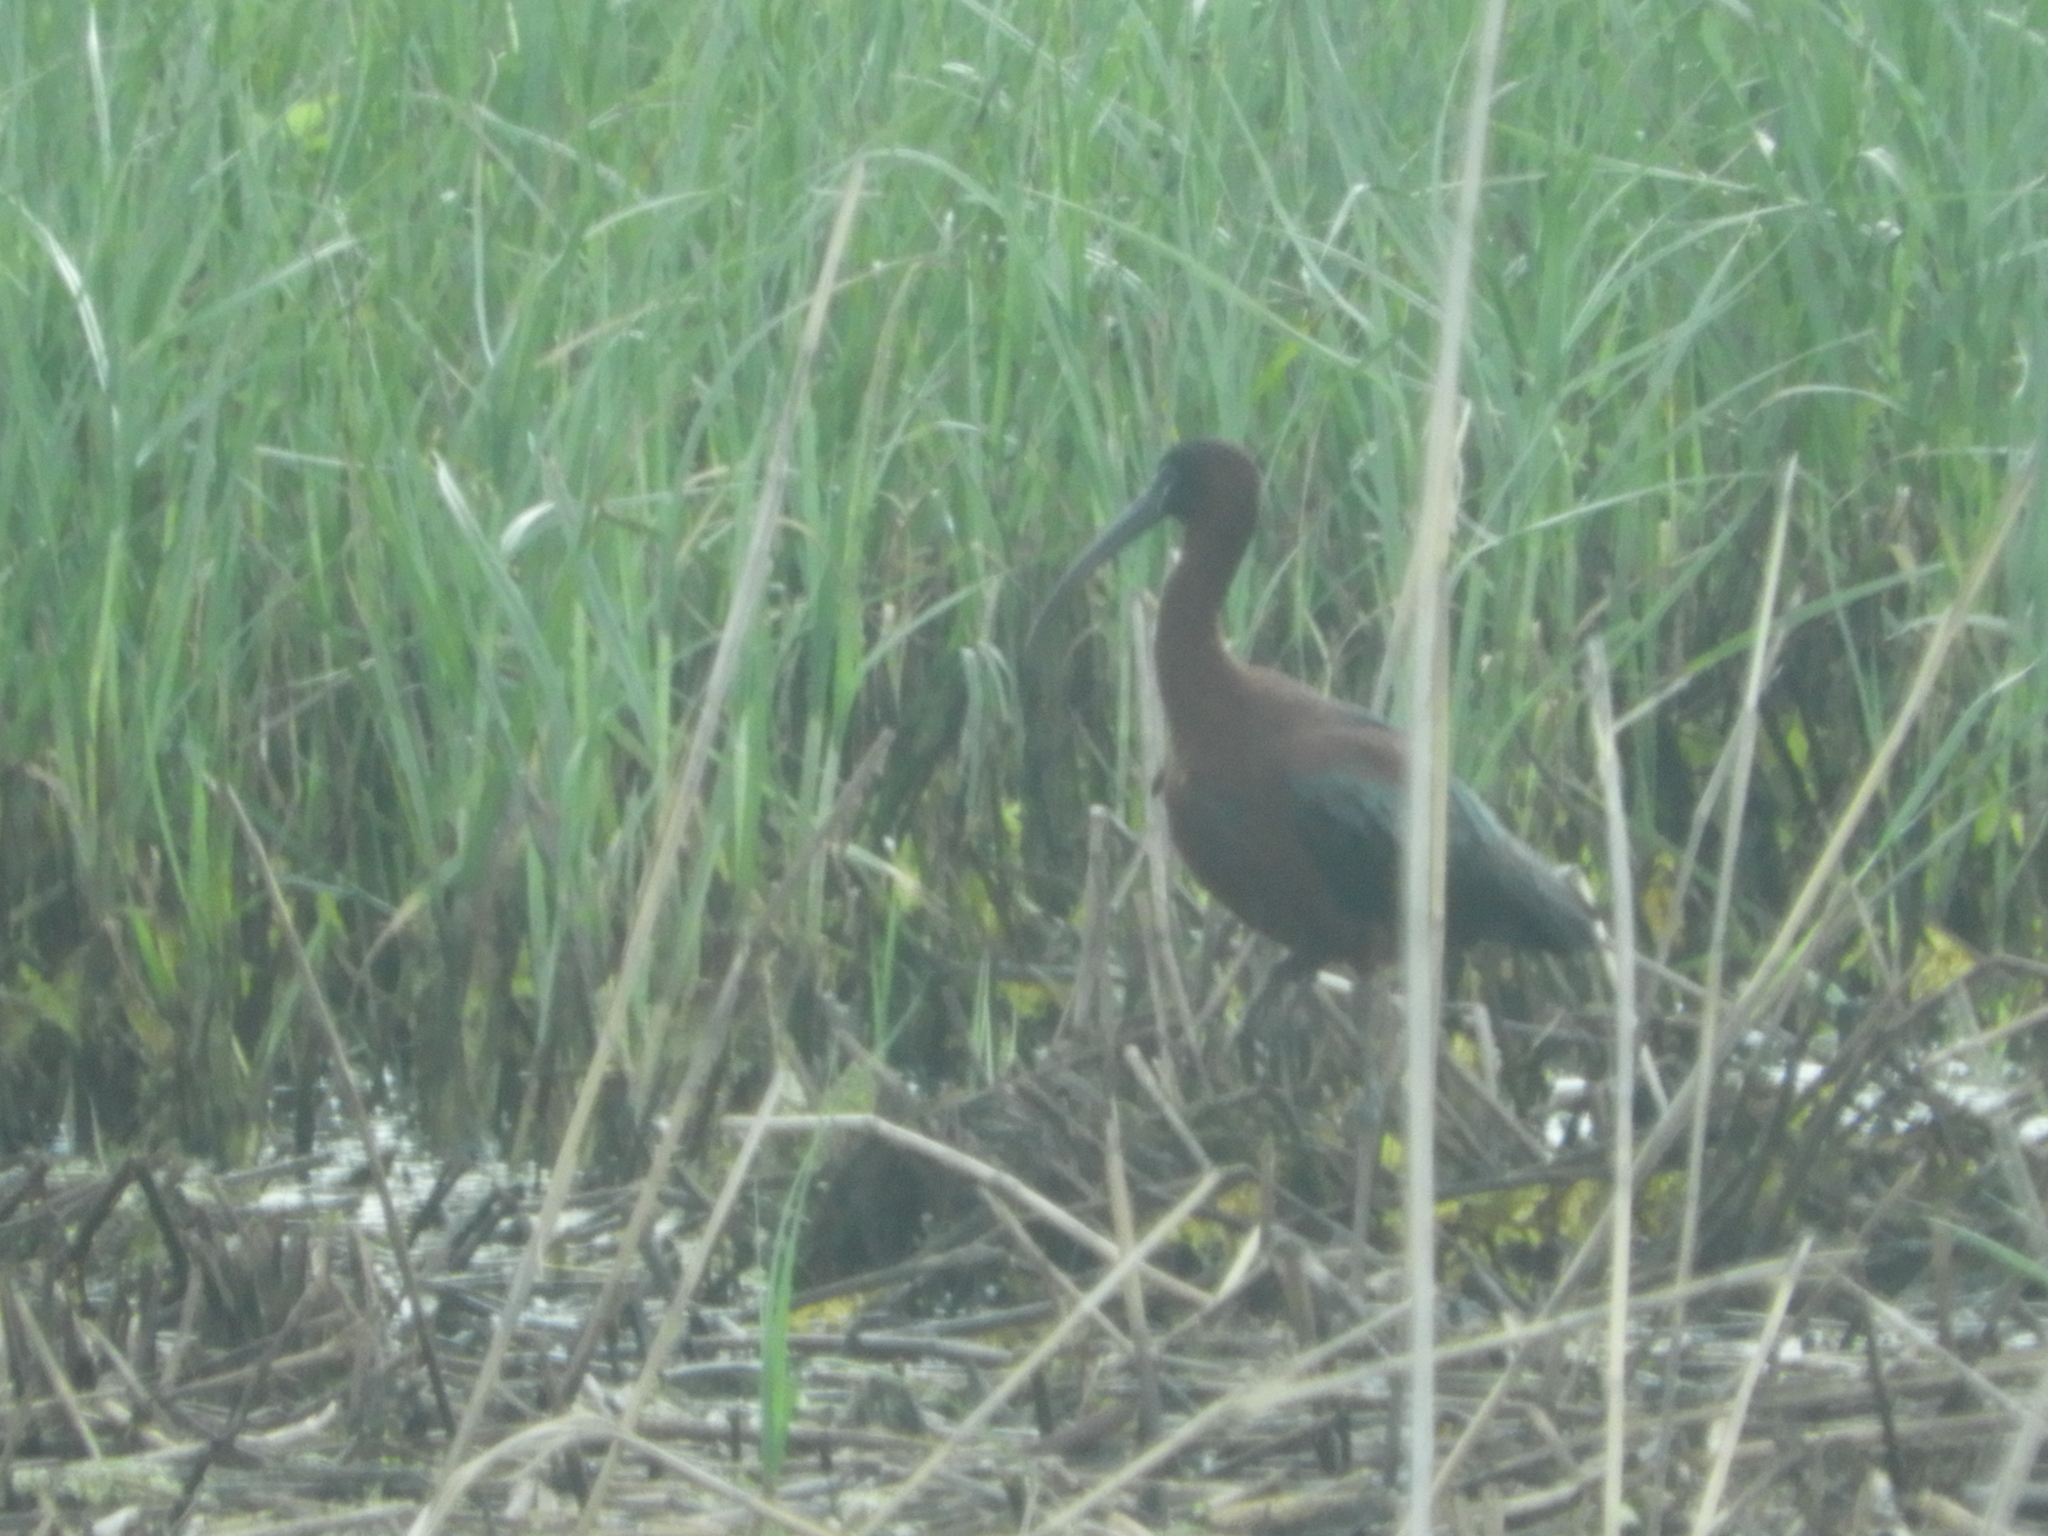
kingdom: Animalia
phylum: Chordata
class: Aves
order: Pelecaniformes
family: Threskiornithidae
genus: Plegadis
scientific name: Plegadis falcinellus
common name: Glossy ibis
